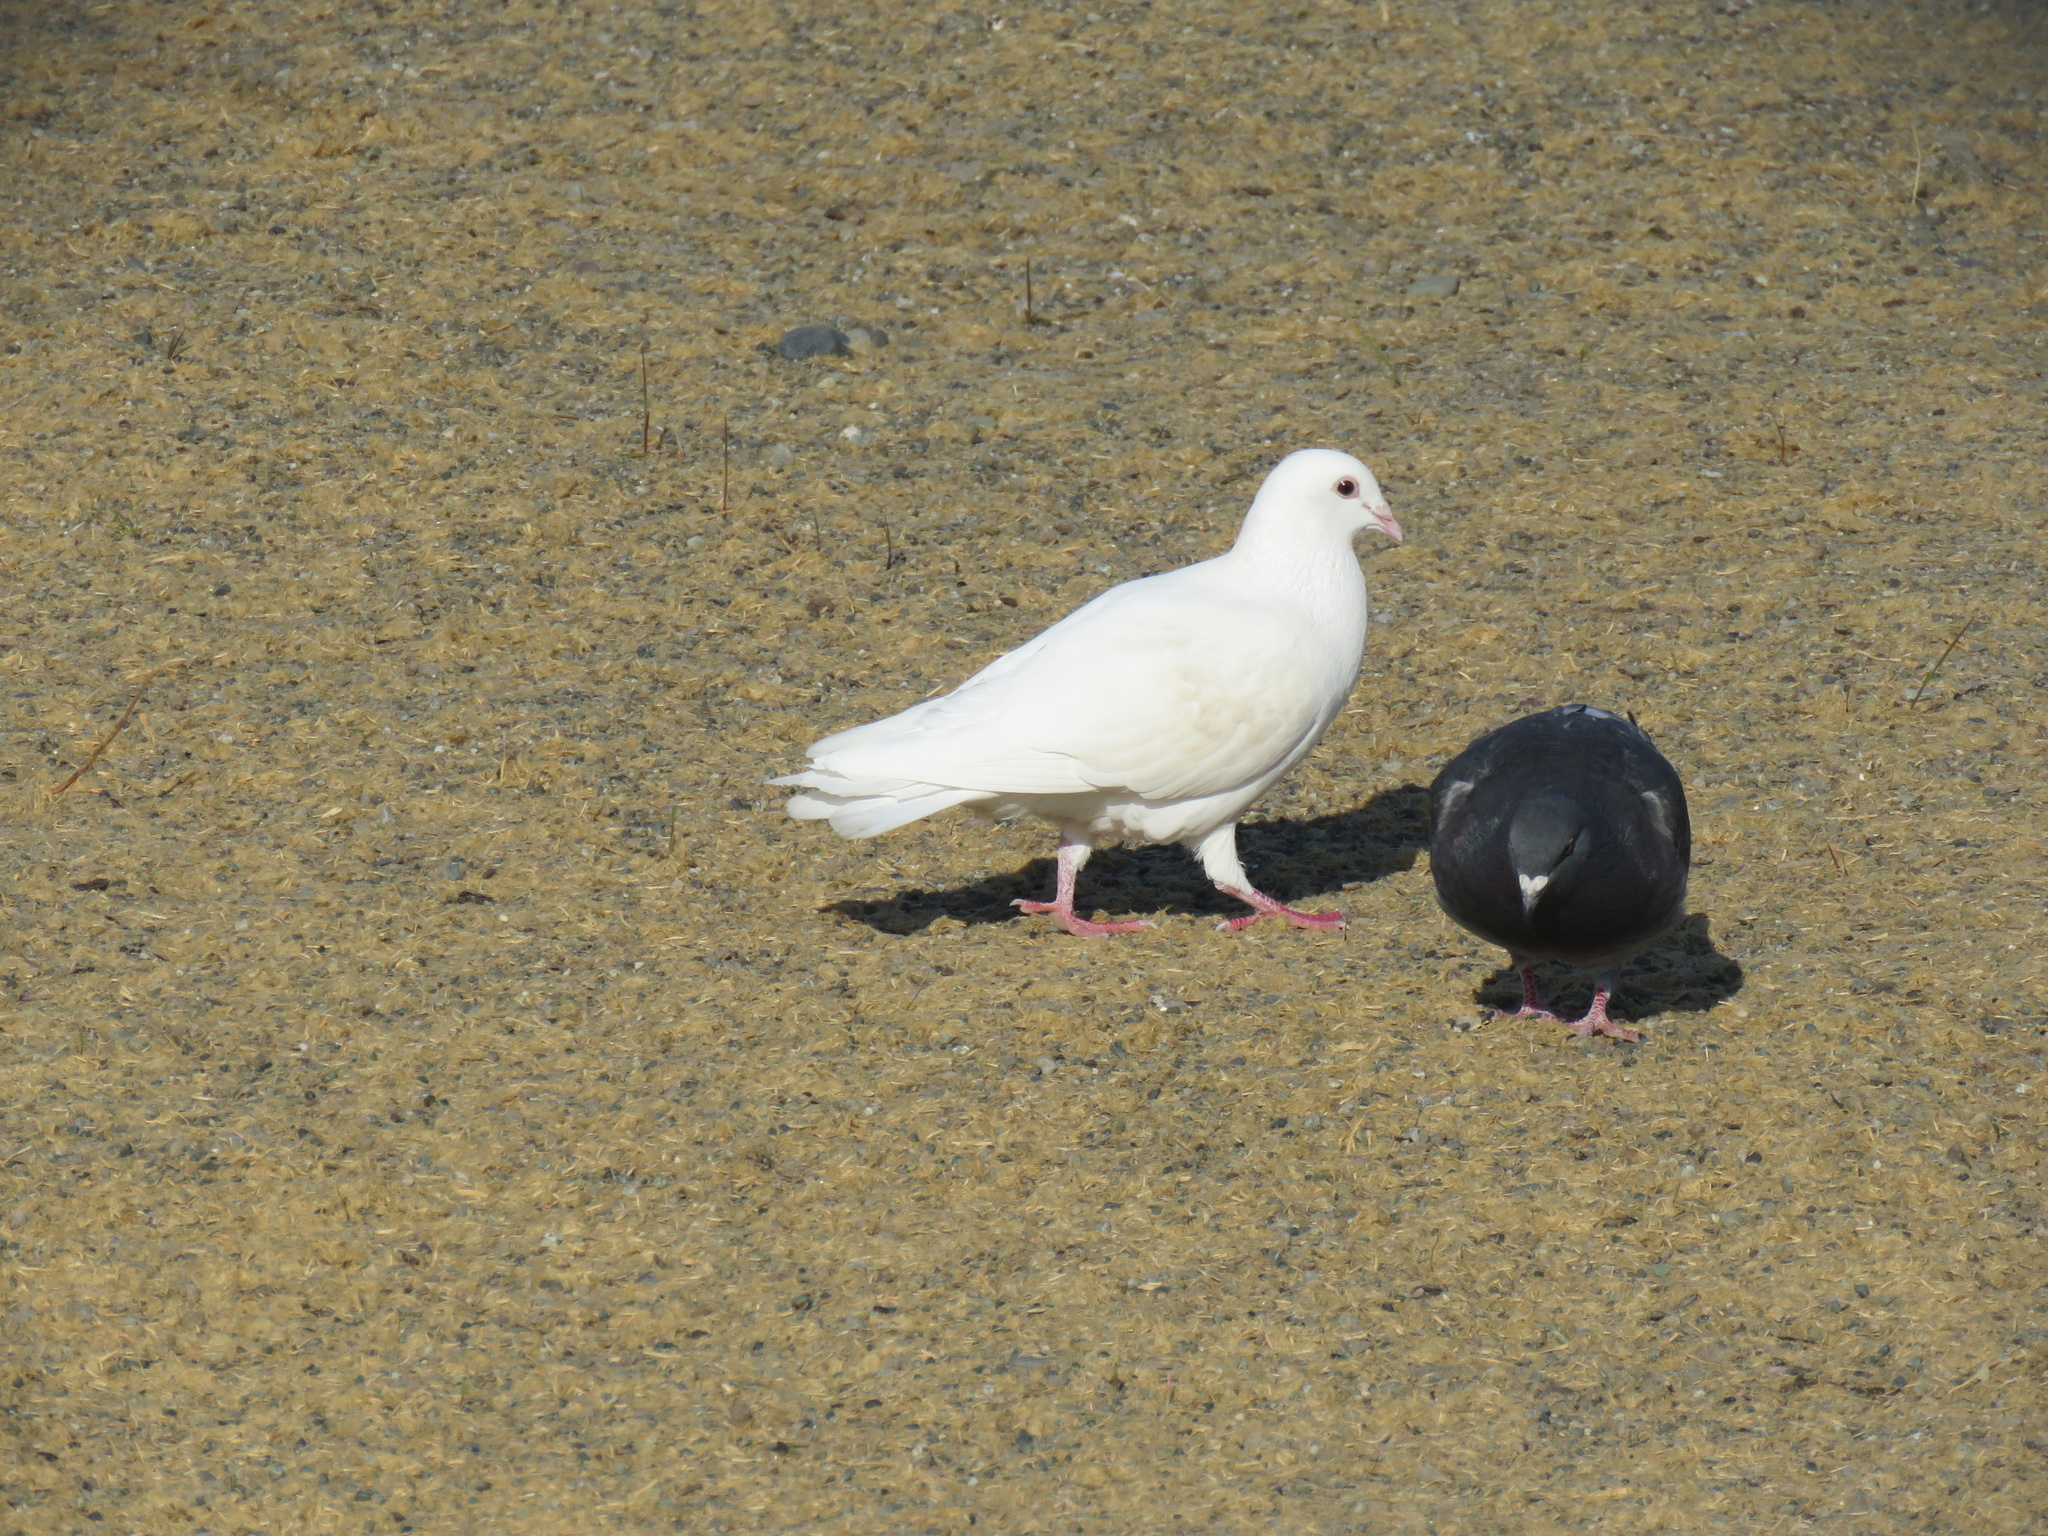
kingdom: Animalia
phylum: Chordata
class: Aves
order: Columbiformes
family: Columbidae
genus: Columba
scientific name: Columba livia
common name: Rock pigeon
